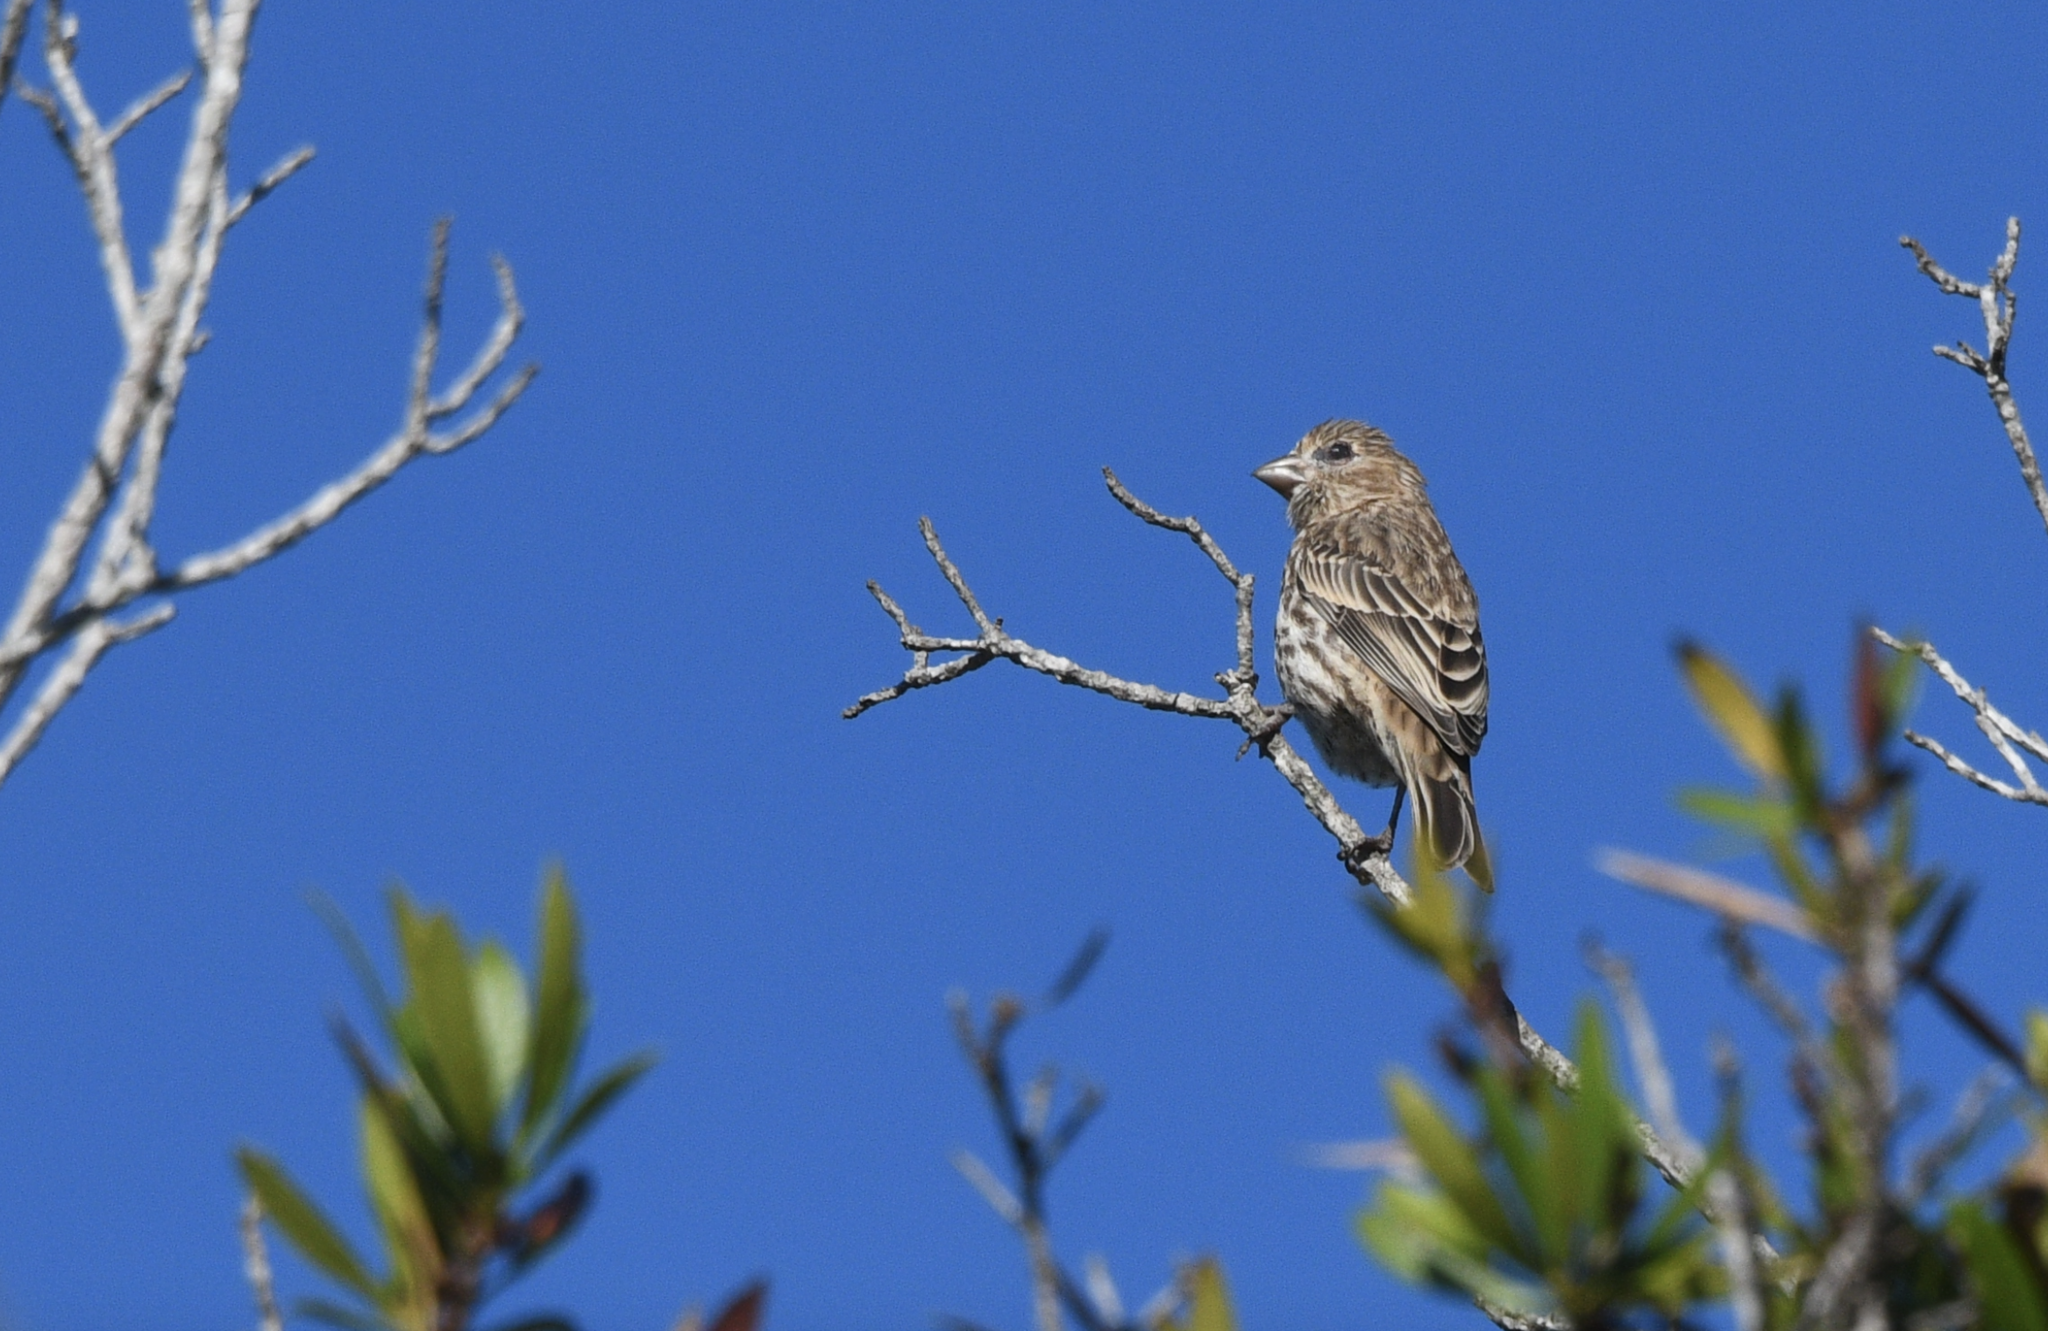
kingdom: Animalia
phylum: Chordata
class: Aves
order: Passeriformes
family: Fringillidae
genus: Haemorhous
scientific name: Haemorhous mexicanus
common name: House finch
